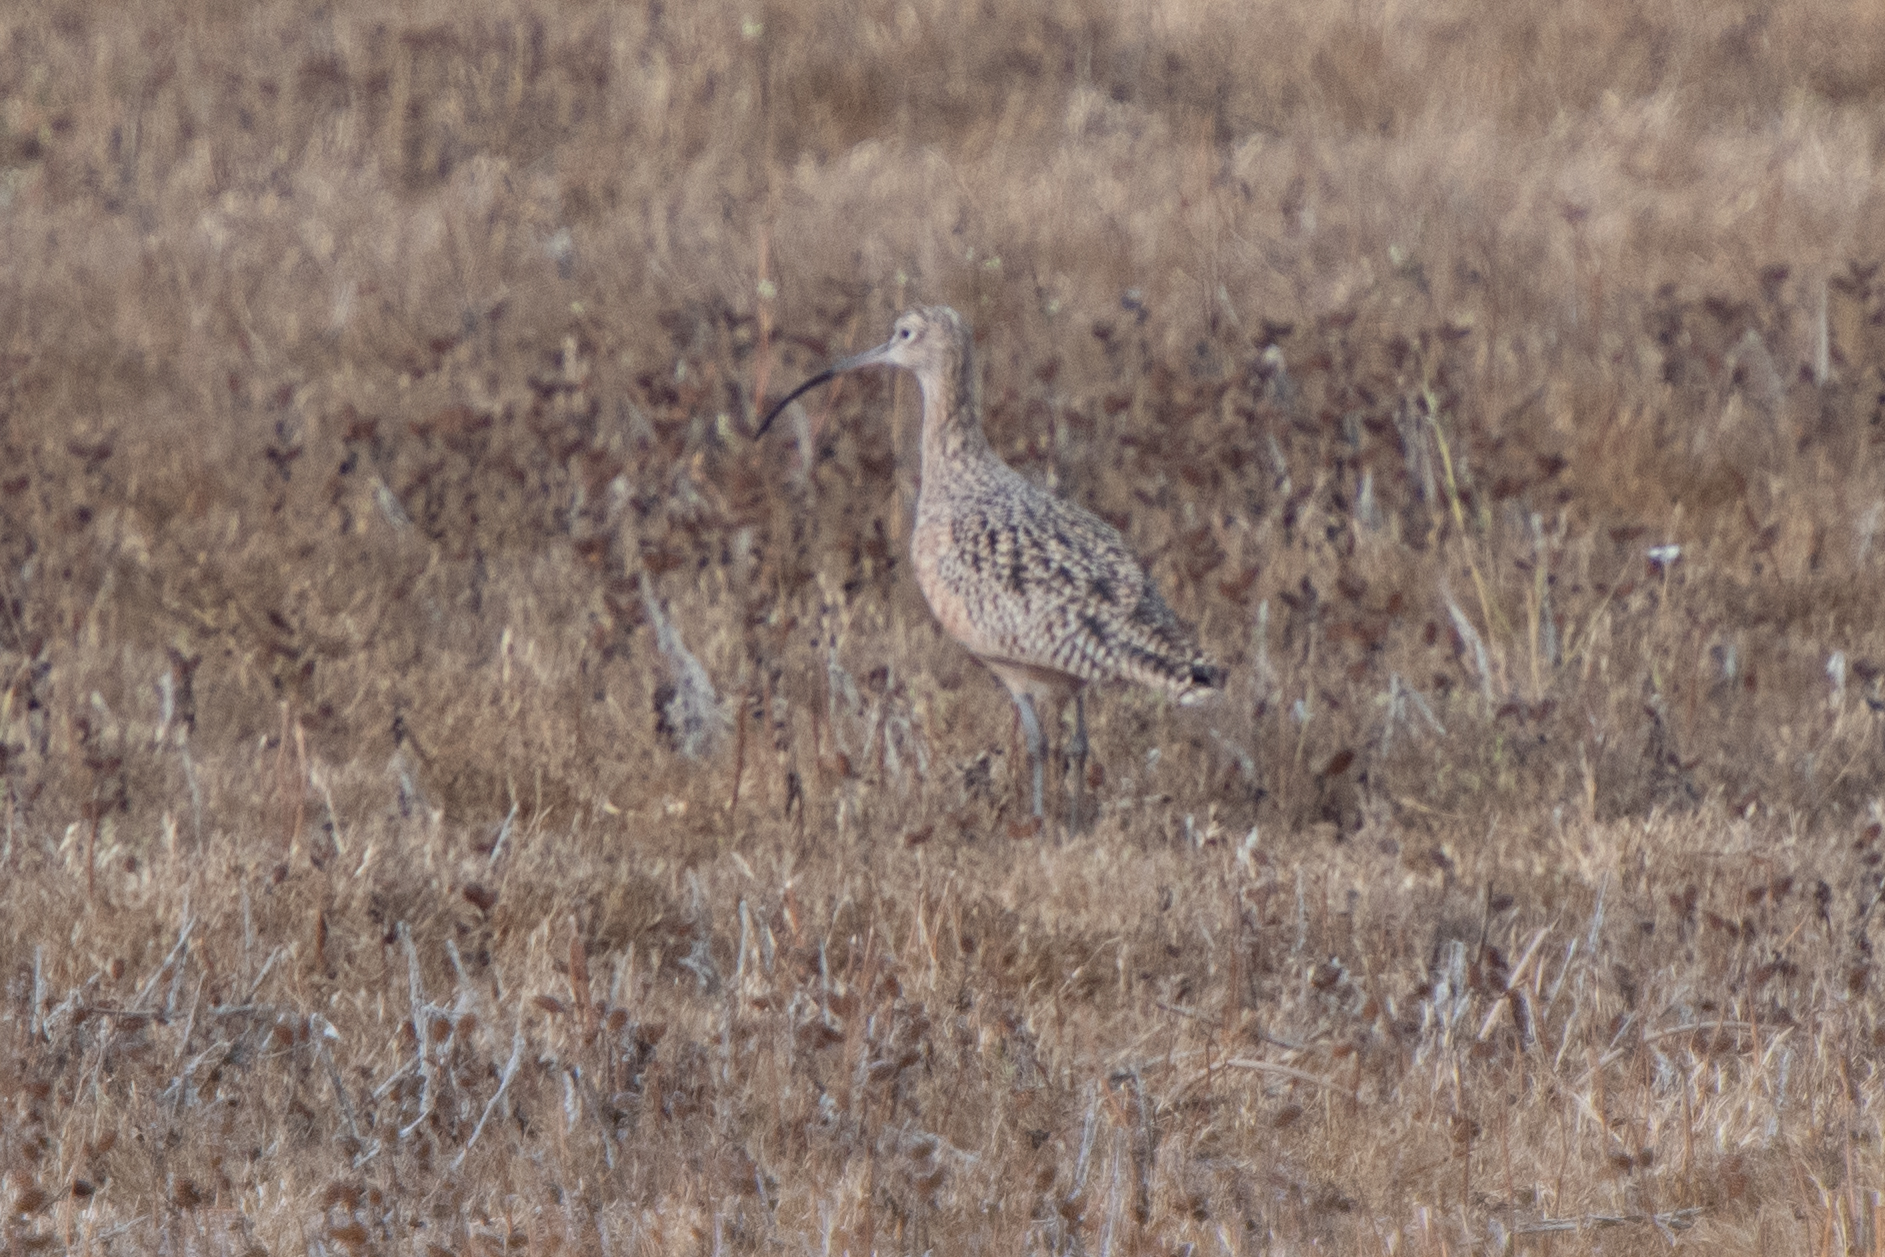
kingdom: Animalia
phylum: Chordata
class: Aves
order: Charadriiformes
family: Scolopacidae
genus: Numenius
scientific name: Numenius americanus
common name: Long-billed curlew
